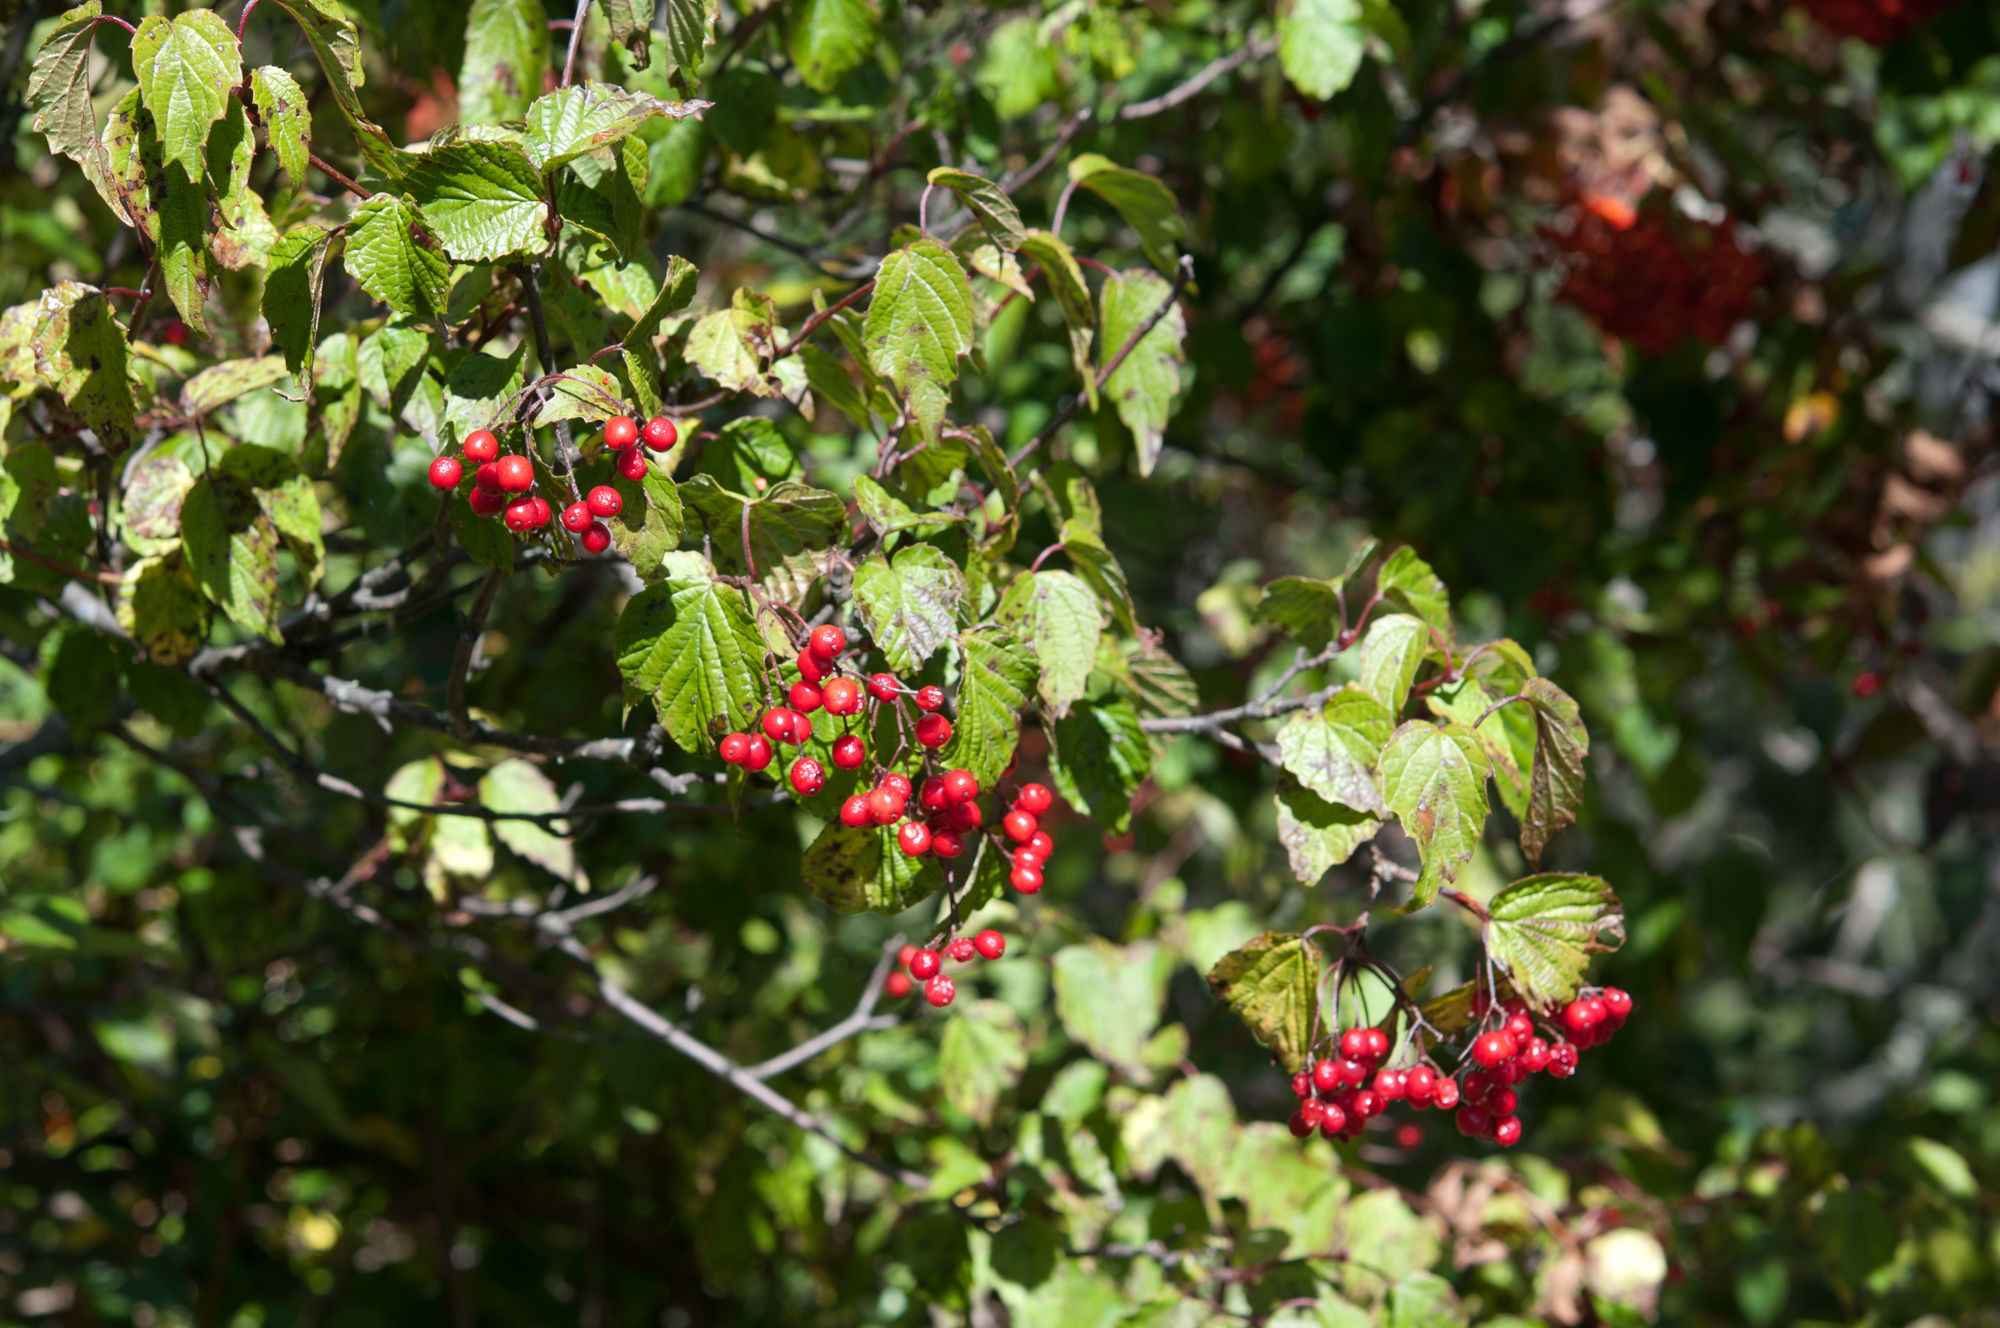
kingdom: Plantae
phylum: Tracheophyta
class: Magnoliopsida
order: Dipsacales
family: Viburnaceae
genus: Viburnum
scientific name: Viburnum betulifolium
